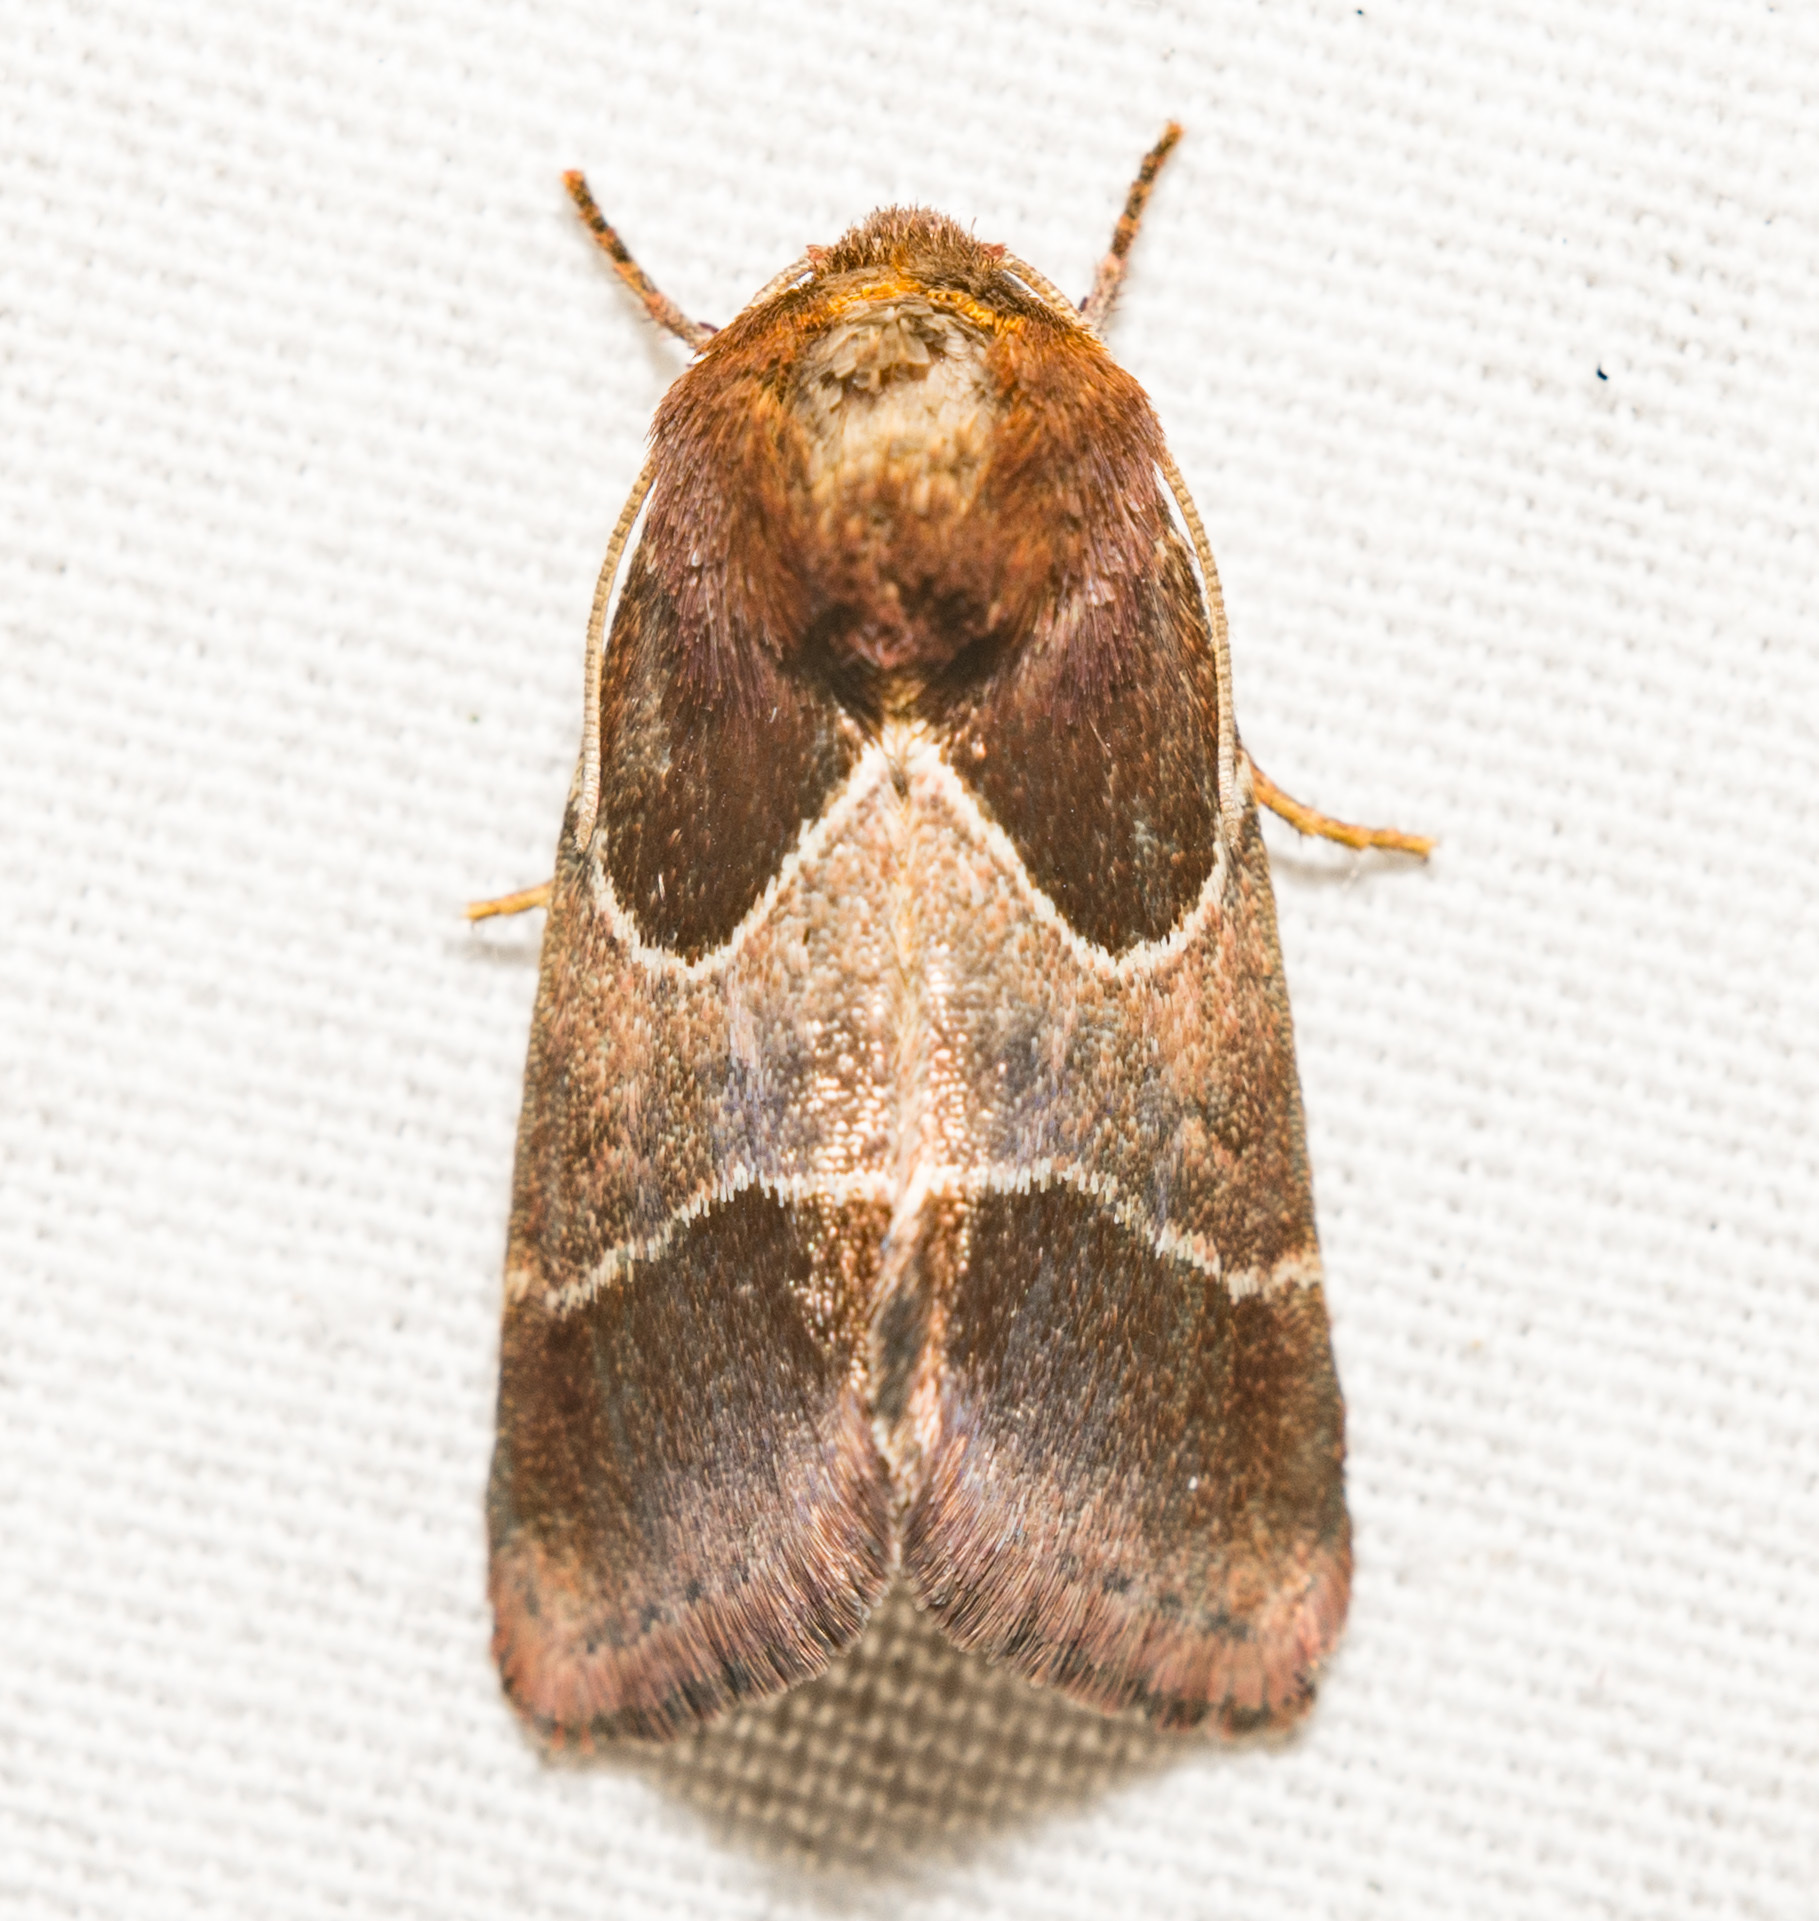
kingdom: Animalia
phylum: Arthropoda
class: Insecta
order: Lepidoptera
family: Noctuidae
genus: Schinia
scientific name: Schinia arcigera
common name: Arcigera flower moth
